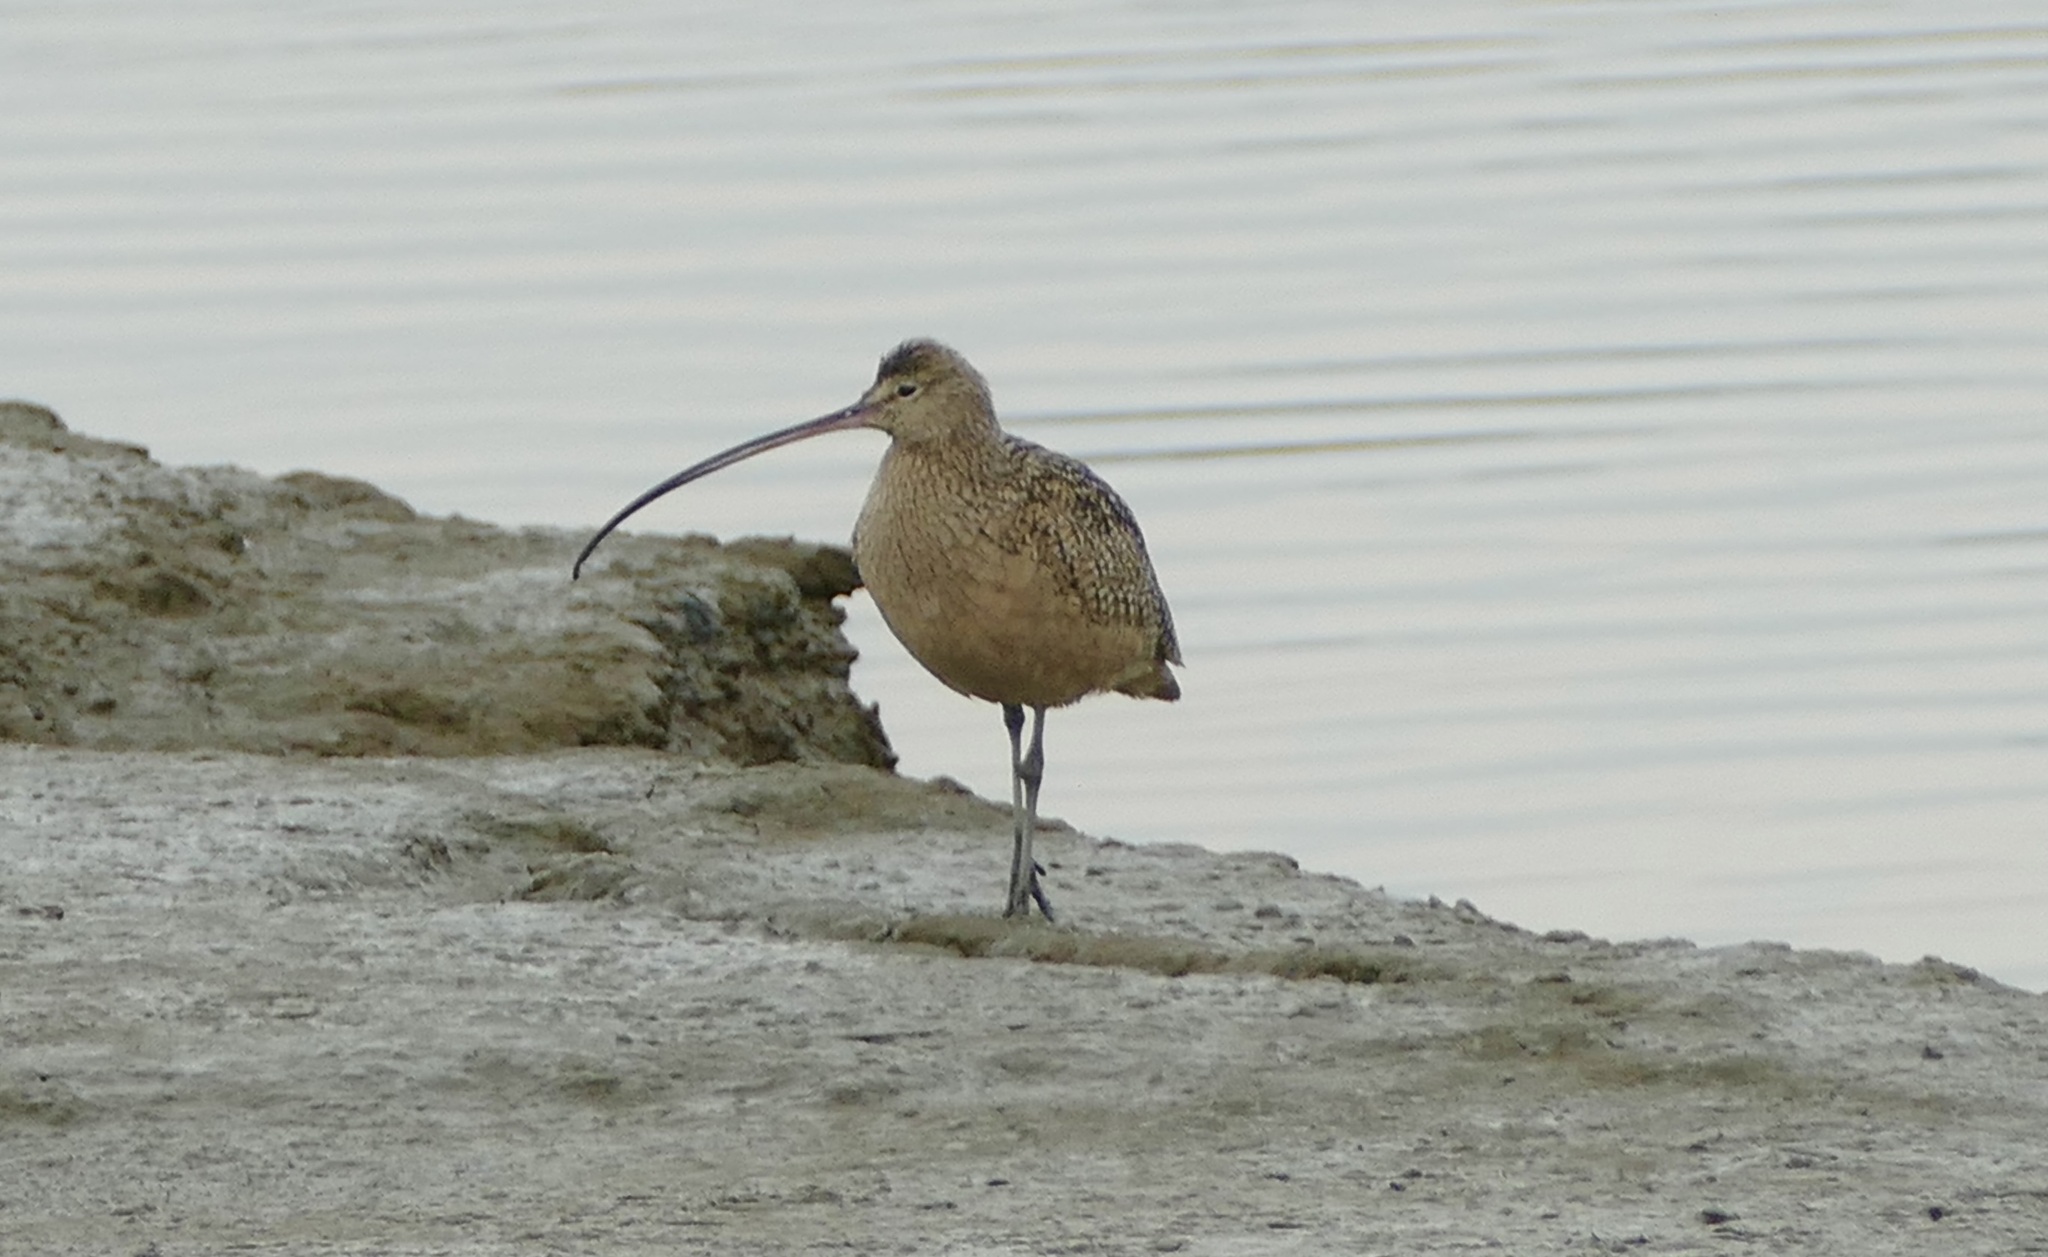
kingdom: Animalia
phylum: Chordata
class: Aves
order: Charadriiformes
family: Scolopacidae
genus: Numenius
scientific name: Numenius americanus
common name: Long-billed curlew
